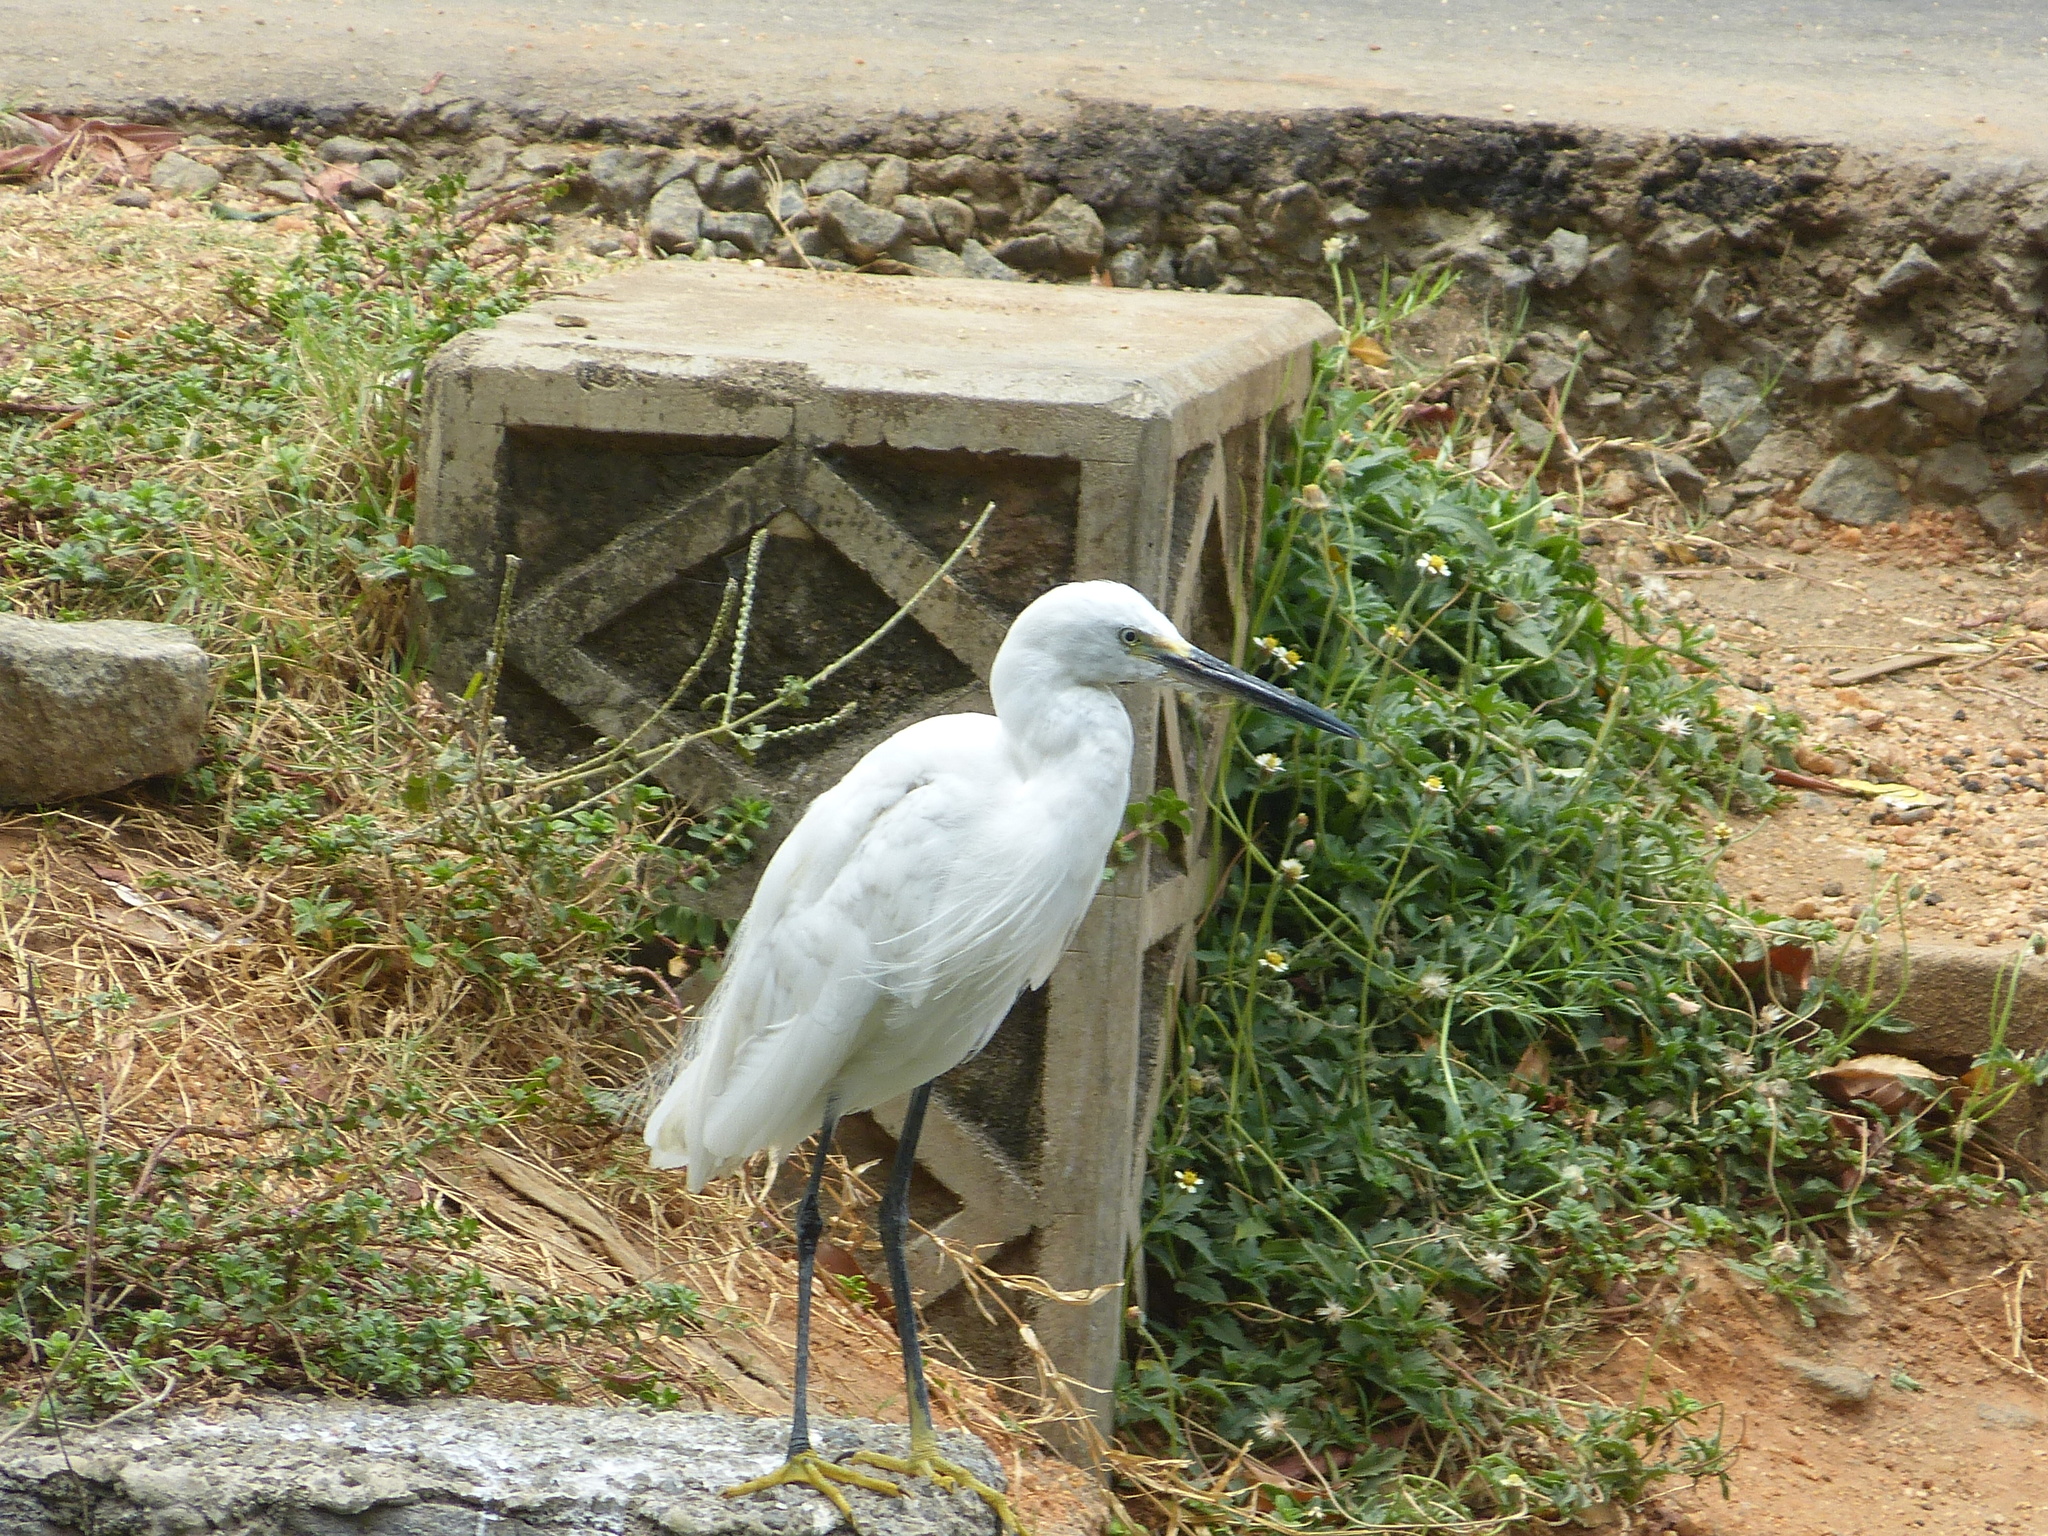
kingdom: Animalia
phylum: Chordata
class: Aves
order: Pelecaniformes
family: Ardeidae
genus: Egretta
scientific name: Egretta garzetta
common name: Little egret
